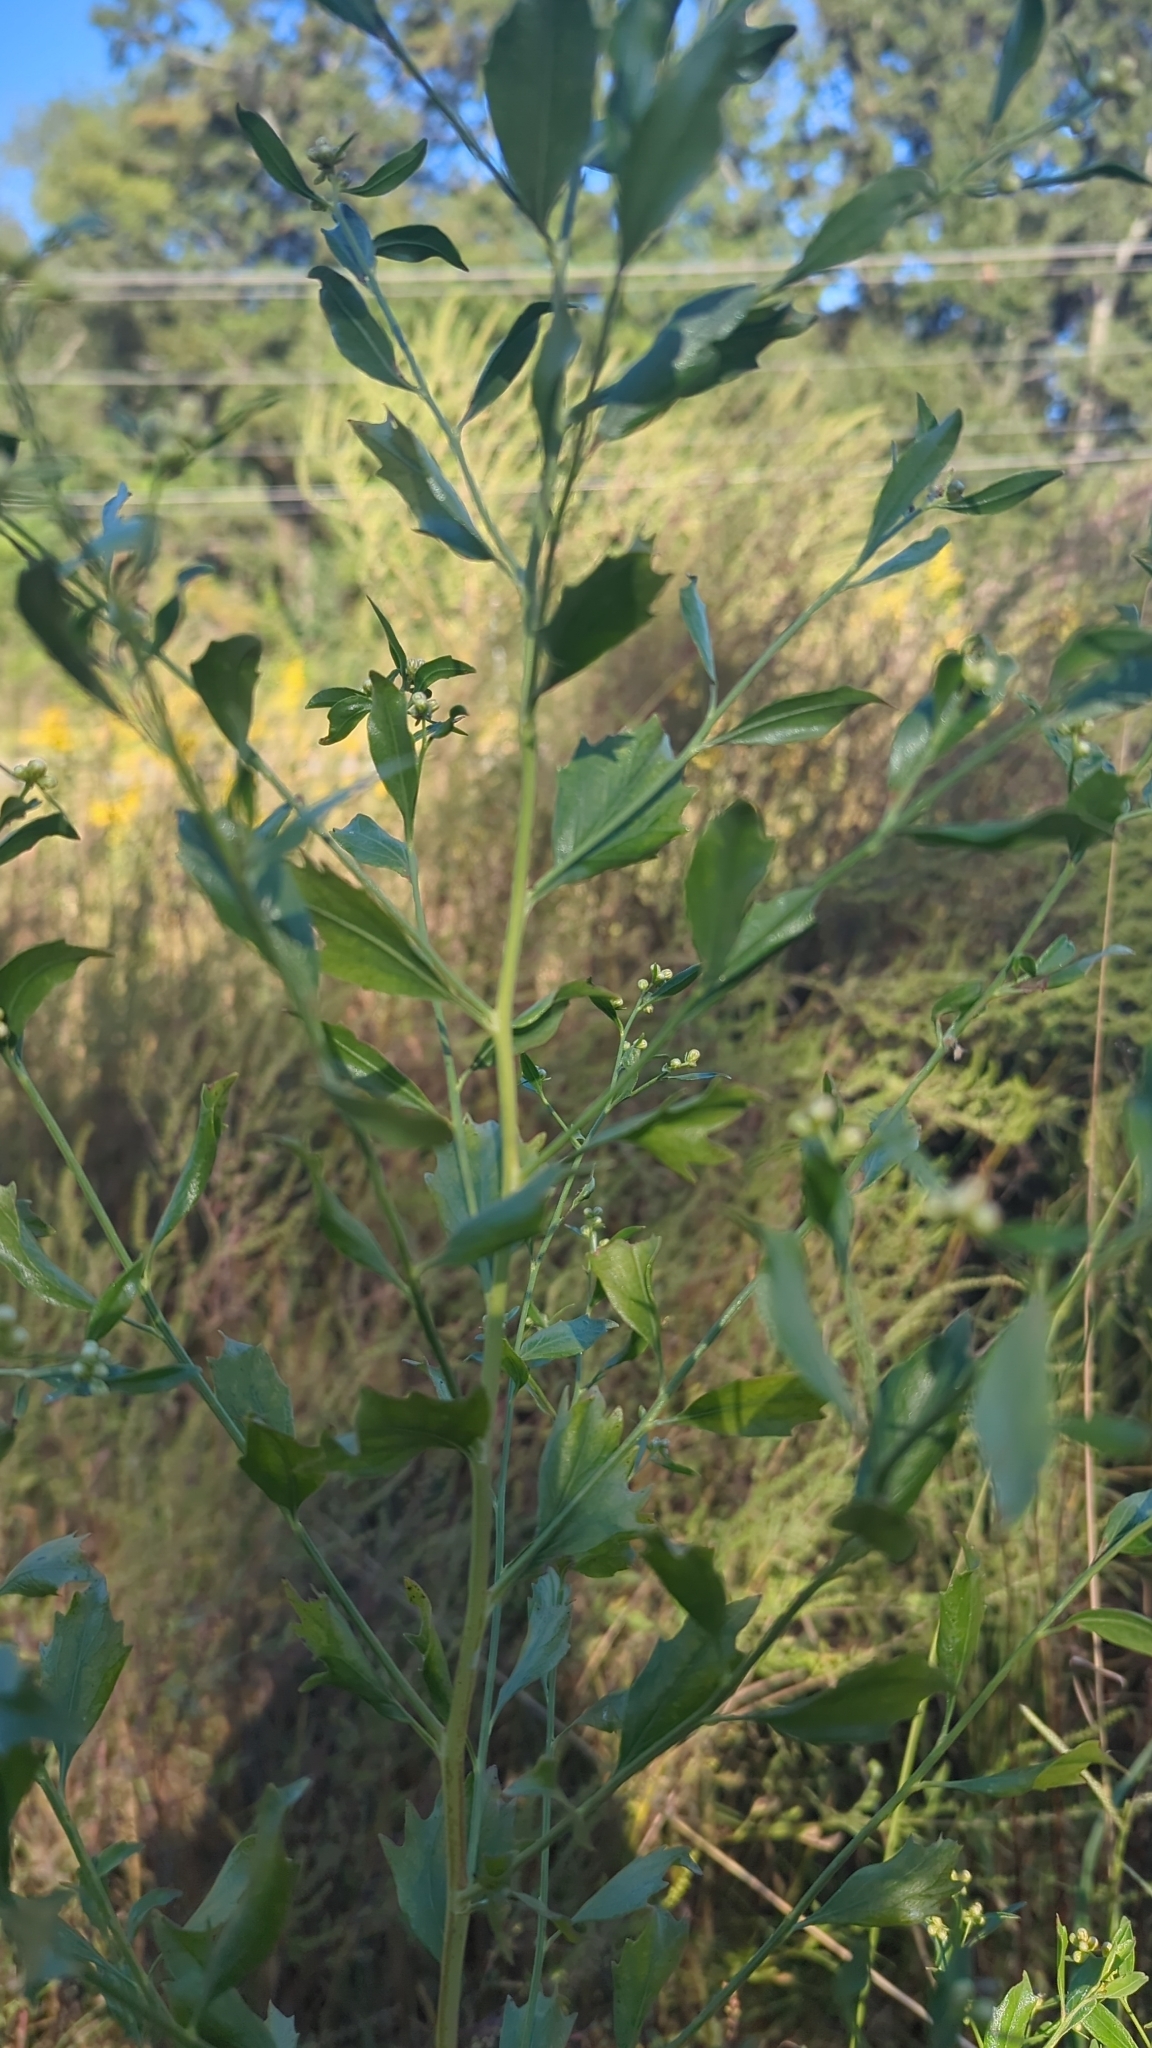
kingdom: Plantae
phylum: Tracheophyta
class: Magnoliopsida
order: Asterales
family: Asteraceae
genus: Baccharis
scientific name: Baccharis halimifolia
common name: Eastern baccharis
